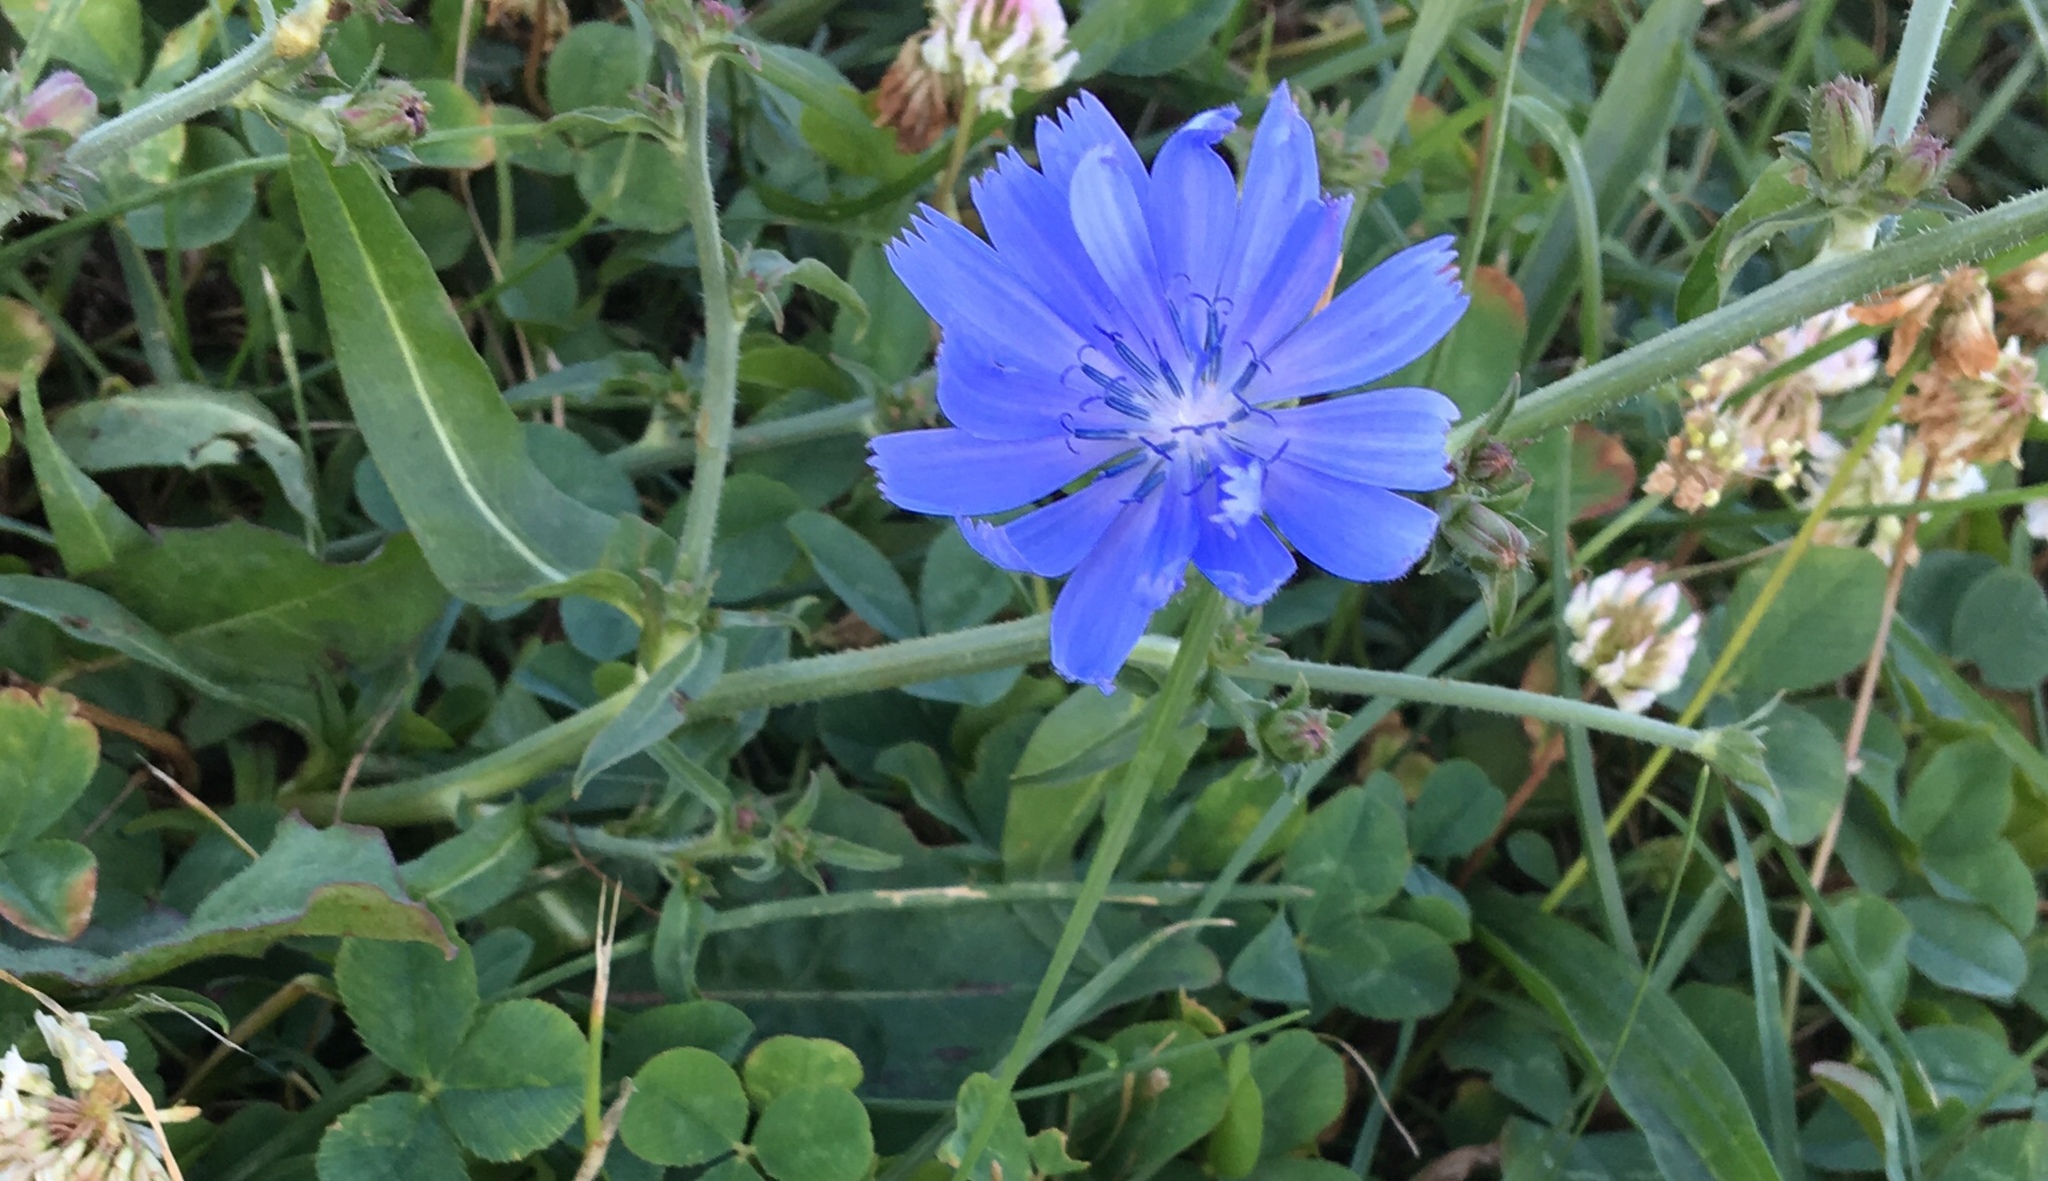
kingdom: Plantae
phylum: Tracheophyta
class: Magnoliopsida
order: Asterales
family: Asteraceae
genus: Cichorium
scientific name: Cichorium intybus
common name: Chicory
